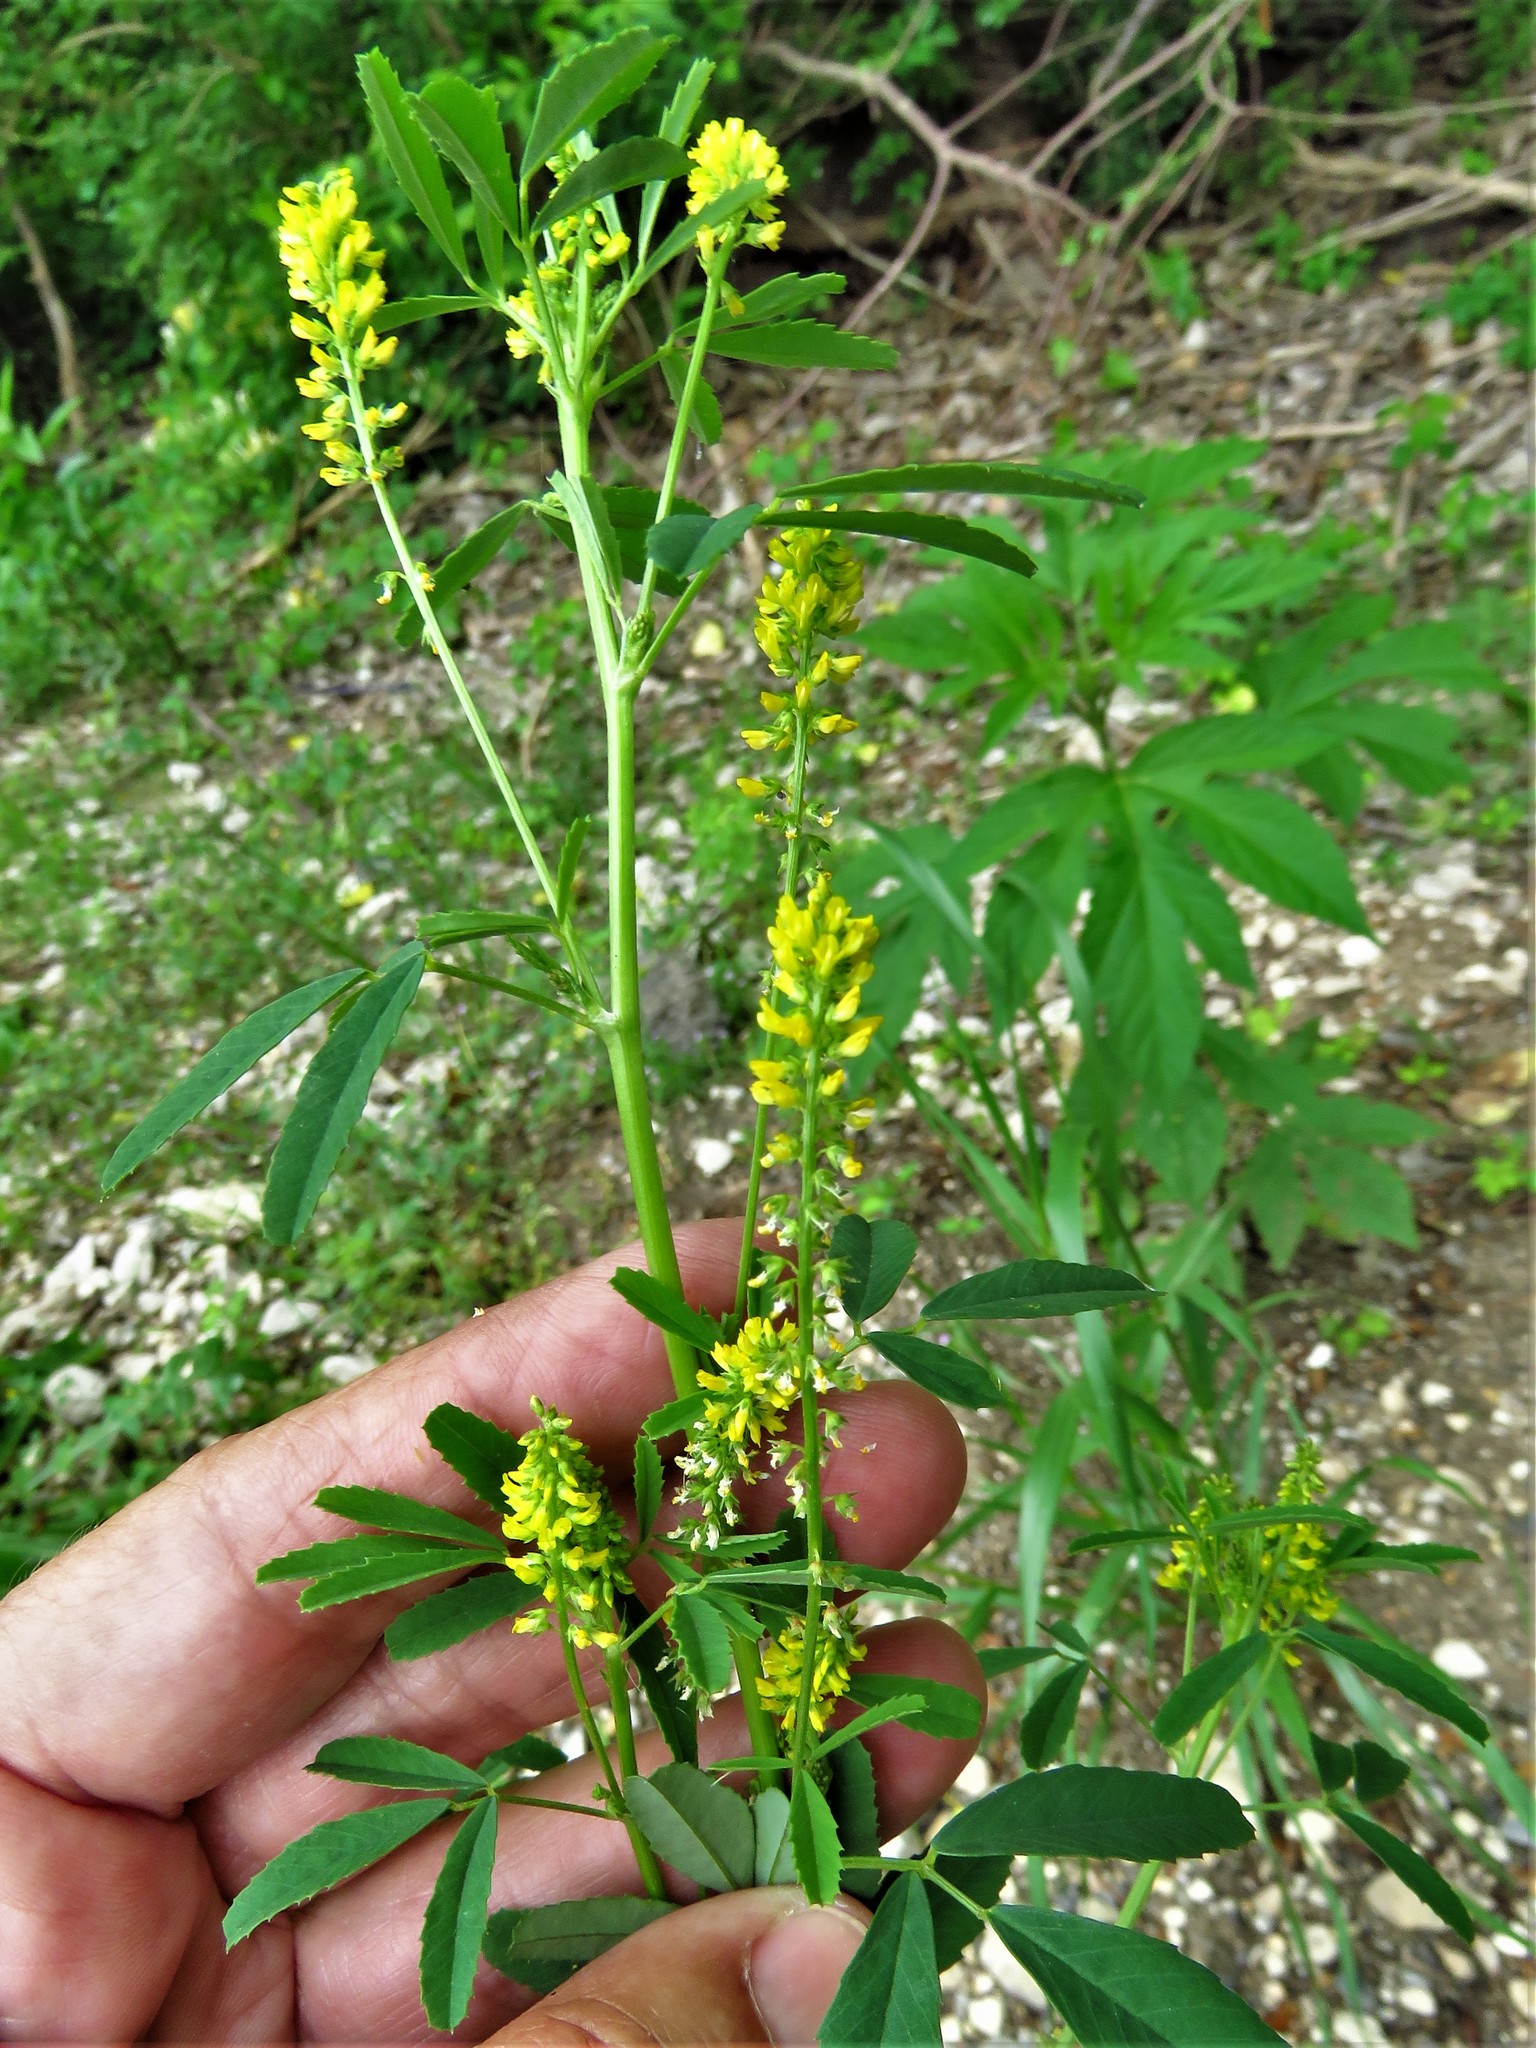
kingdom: Plantae
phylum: Tracheophyta
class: Magnoliopsida
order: Fabales
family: Fabaceae
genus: Melilotus
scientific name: Melilotus indicus
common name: Small melilot
